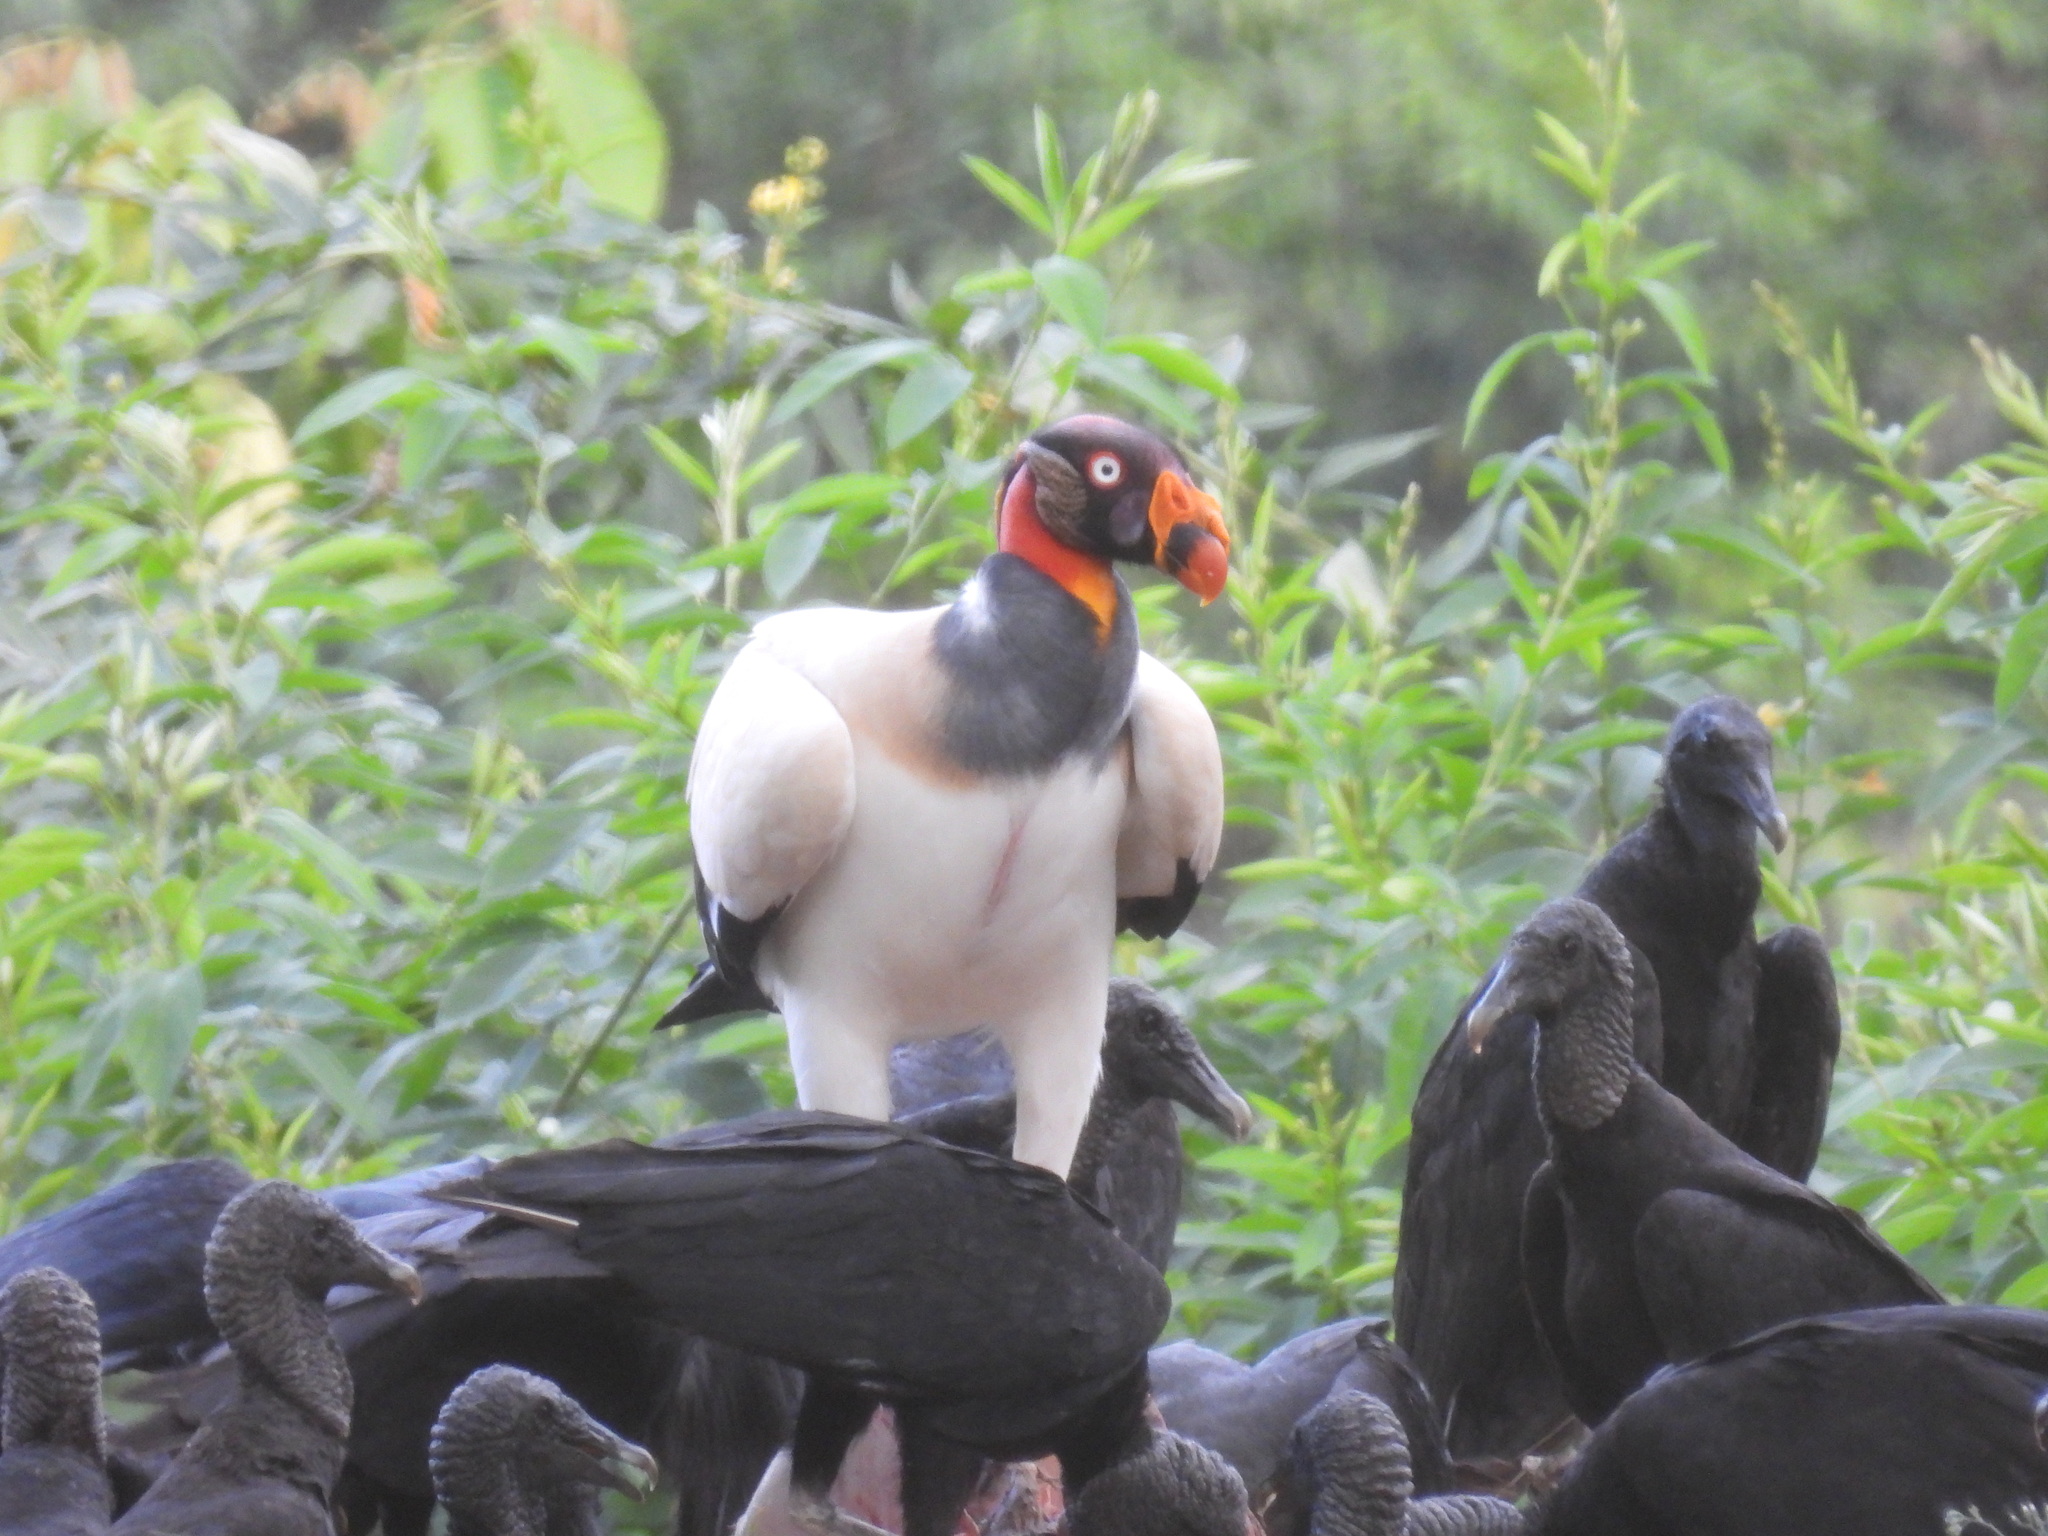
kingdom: Animalia
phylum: Chordata
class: Aves
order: Accipitriformes
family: Cathartidae
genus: Sarcoramphus
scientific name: Sarcoramphus papa
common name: King vulture
